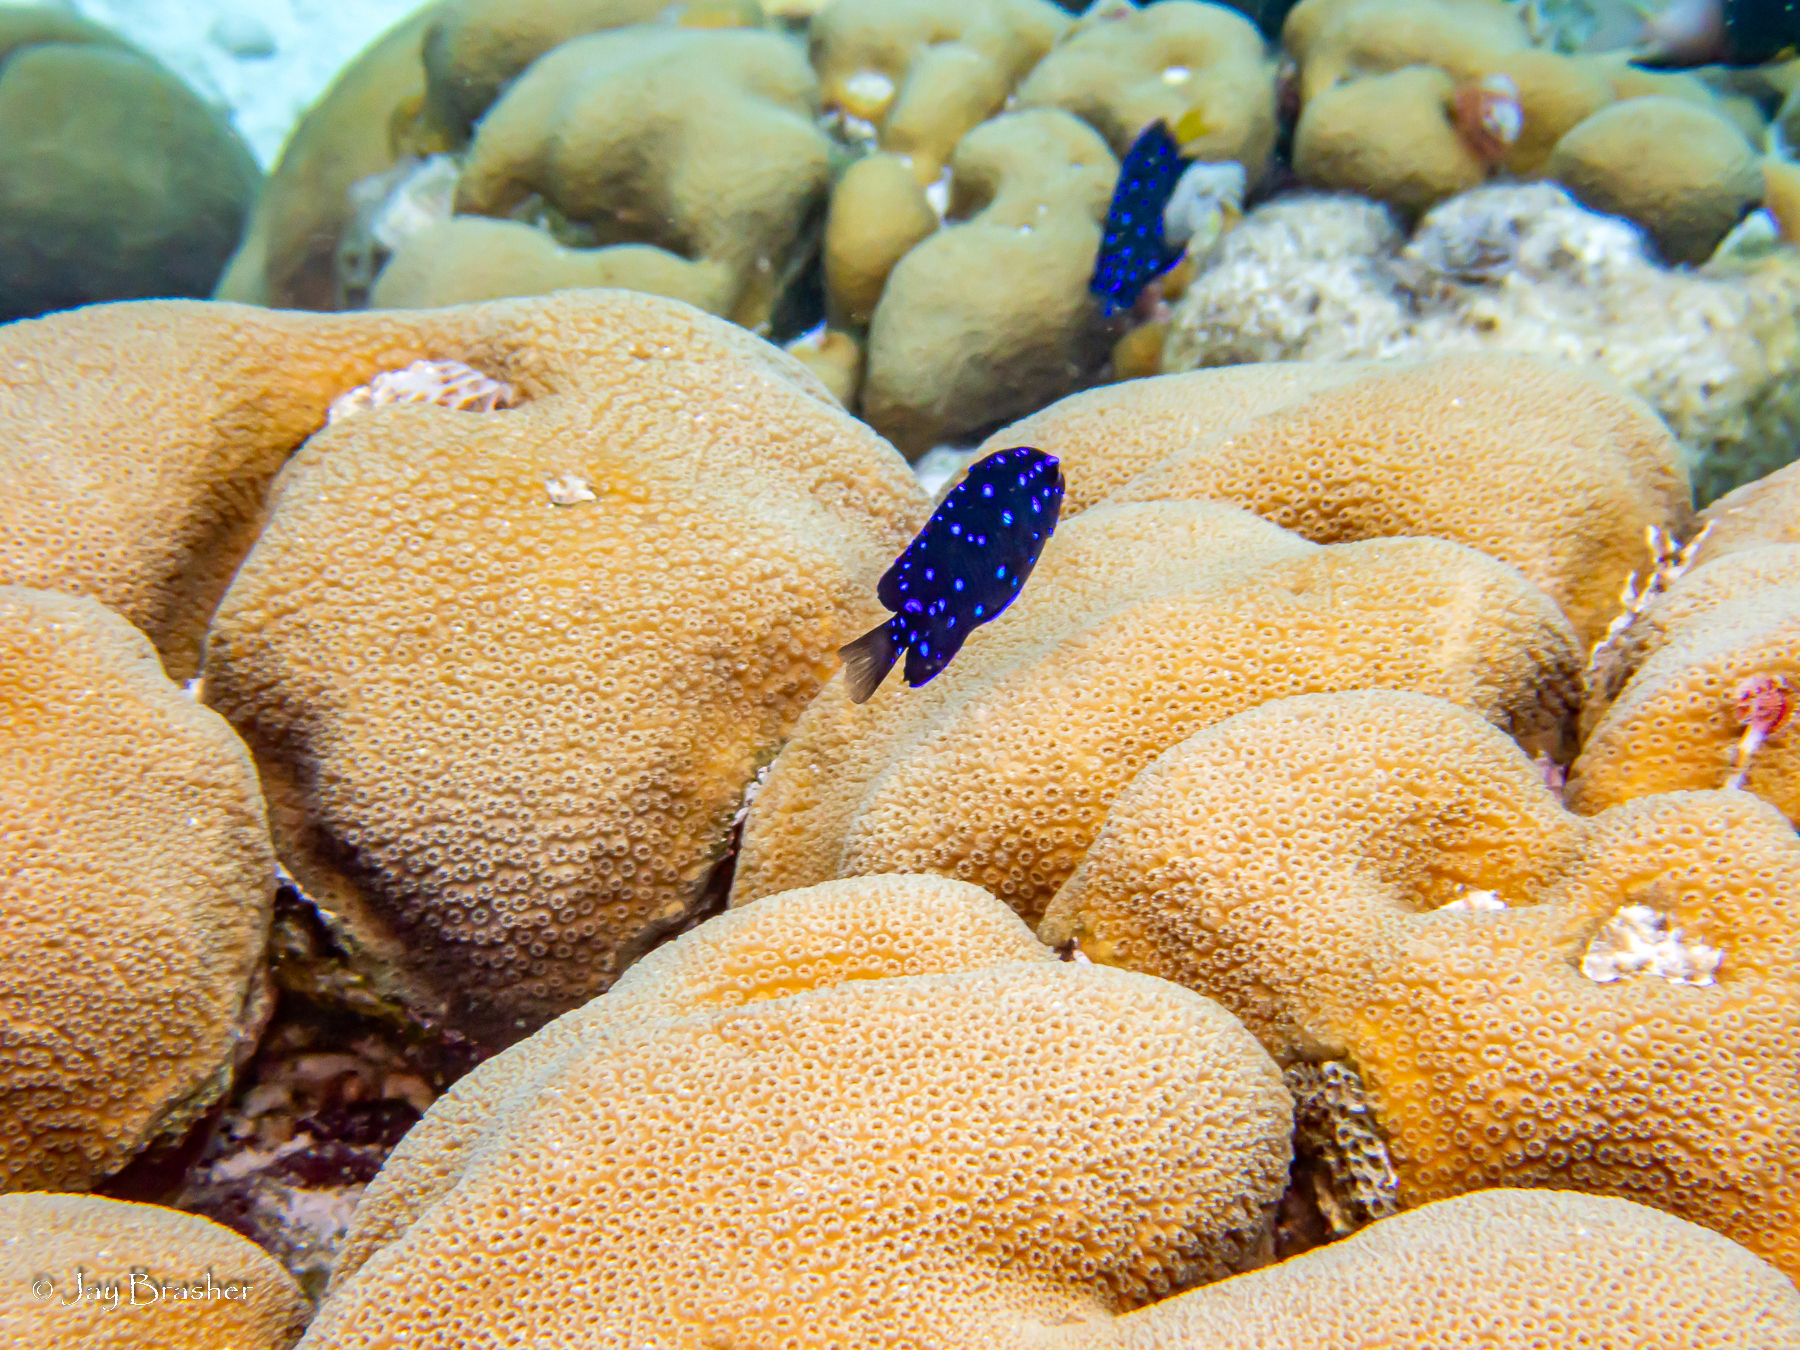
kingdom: Animalia
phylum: Chordata
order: Perciformes
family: Pomacentridae
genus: Microspathodon
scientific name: Microspathodon chrysurus
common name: Yellowtail damselfish
